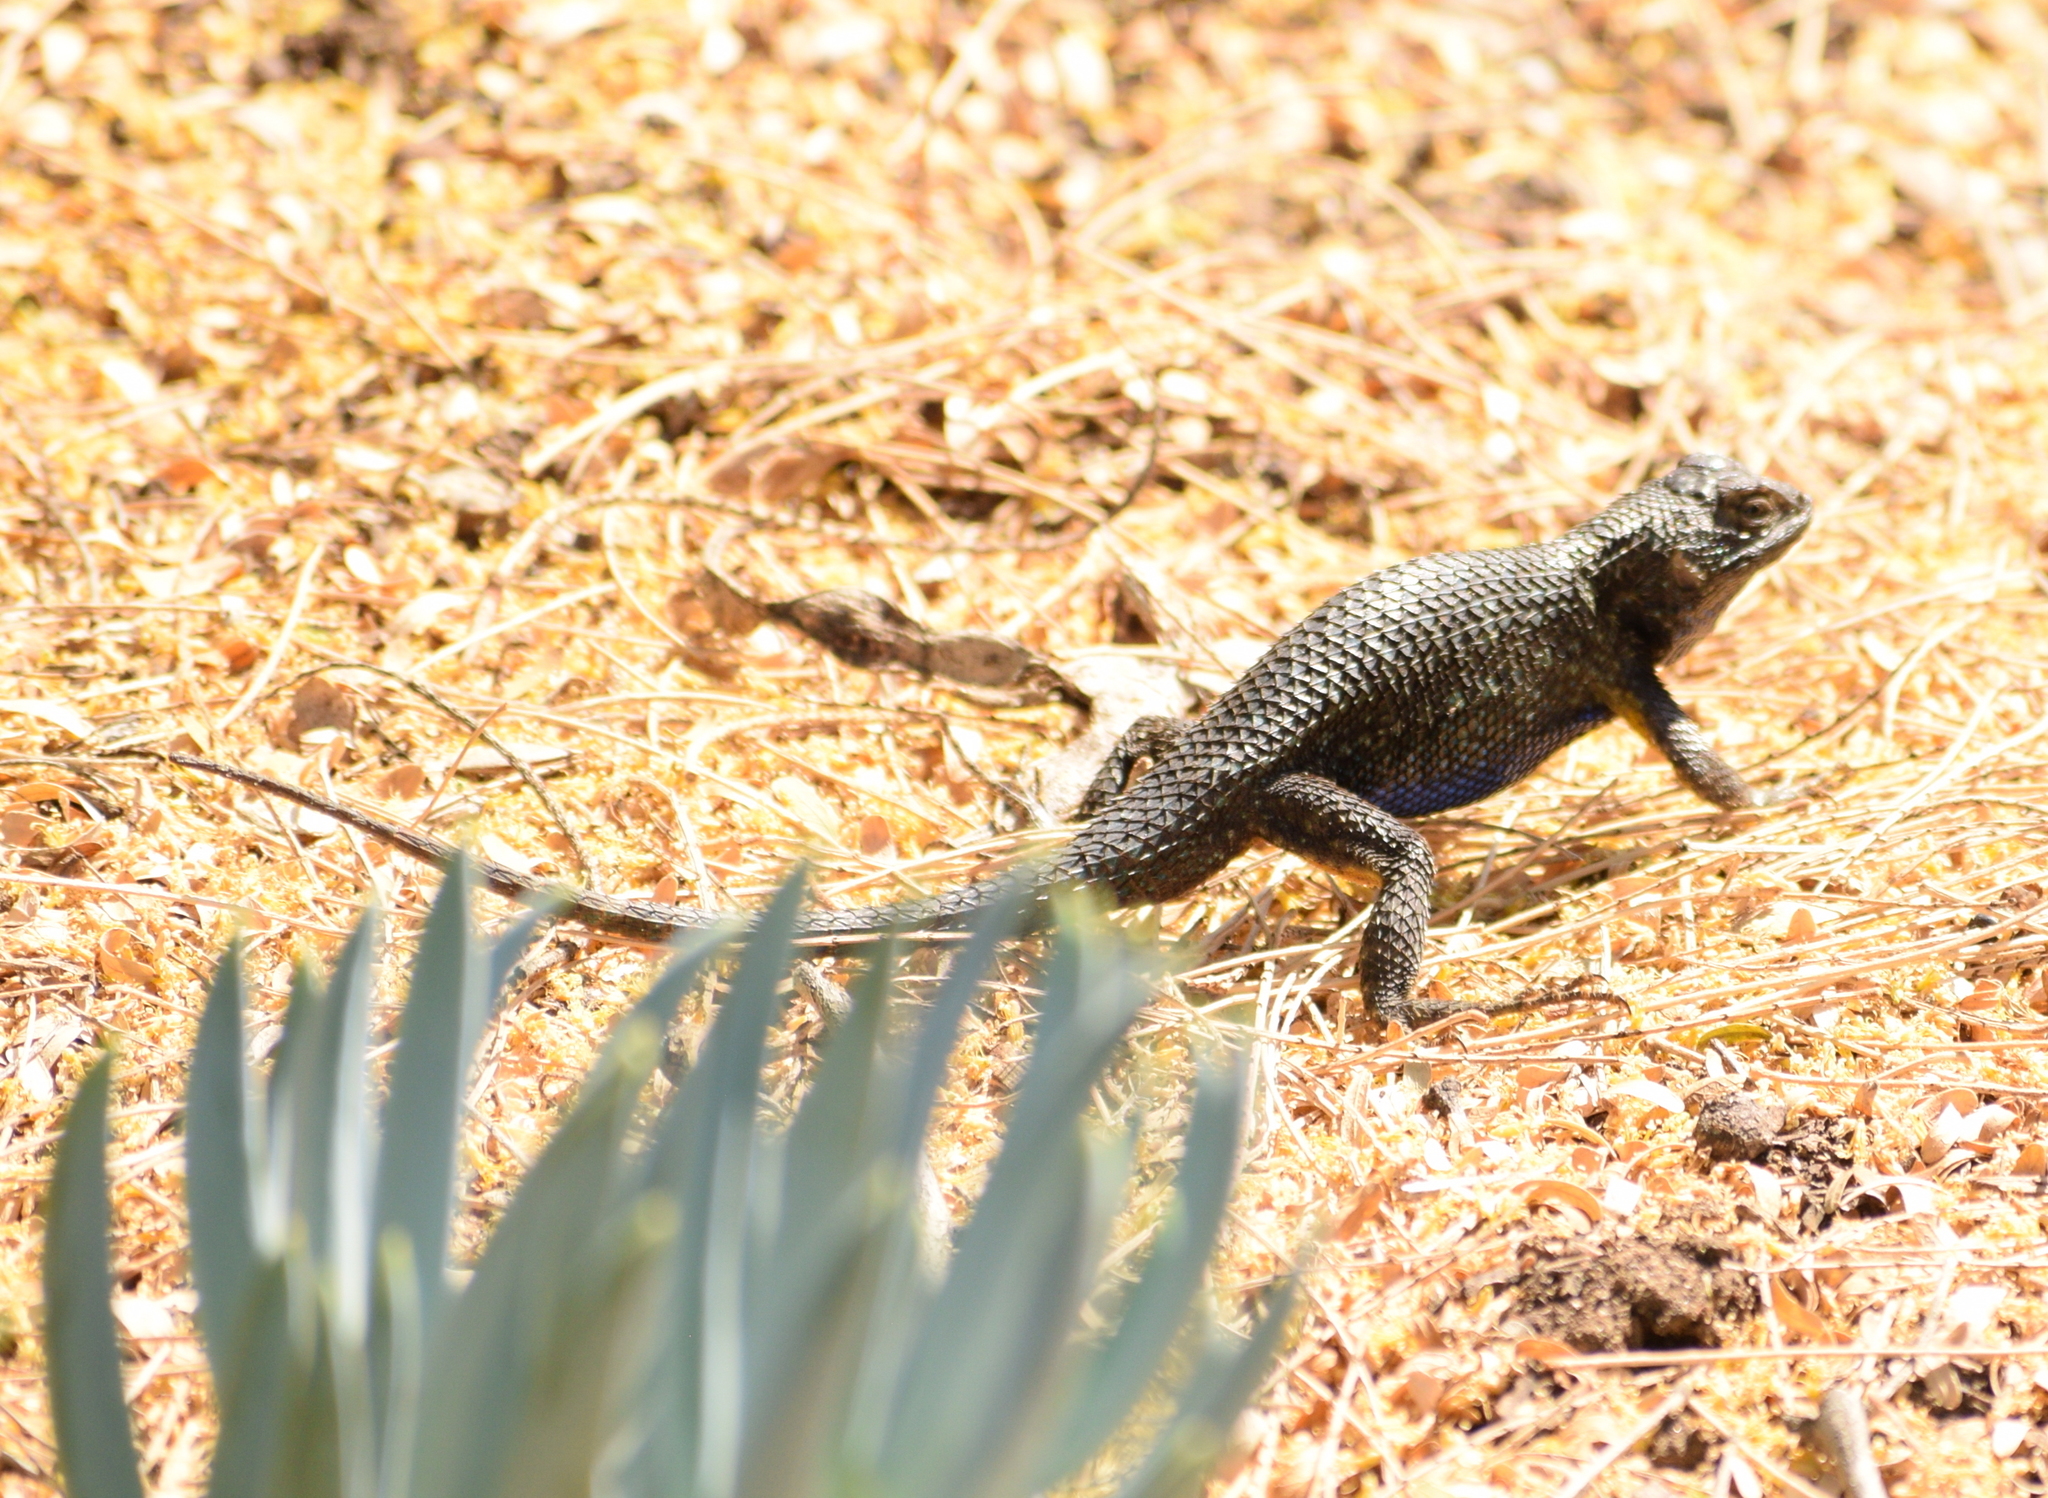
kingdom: Animalia
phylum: Chordata
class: Squamata
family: Phrynosomatidae
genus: Sceloporus
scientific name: Sceloporus occidentalis
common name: Western fence lizard
